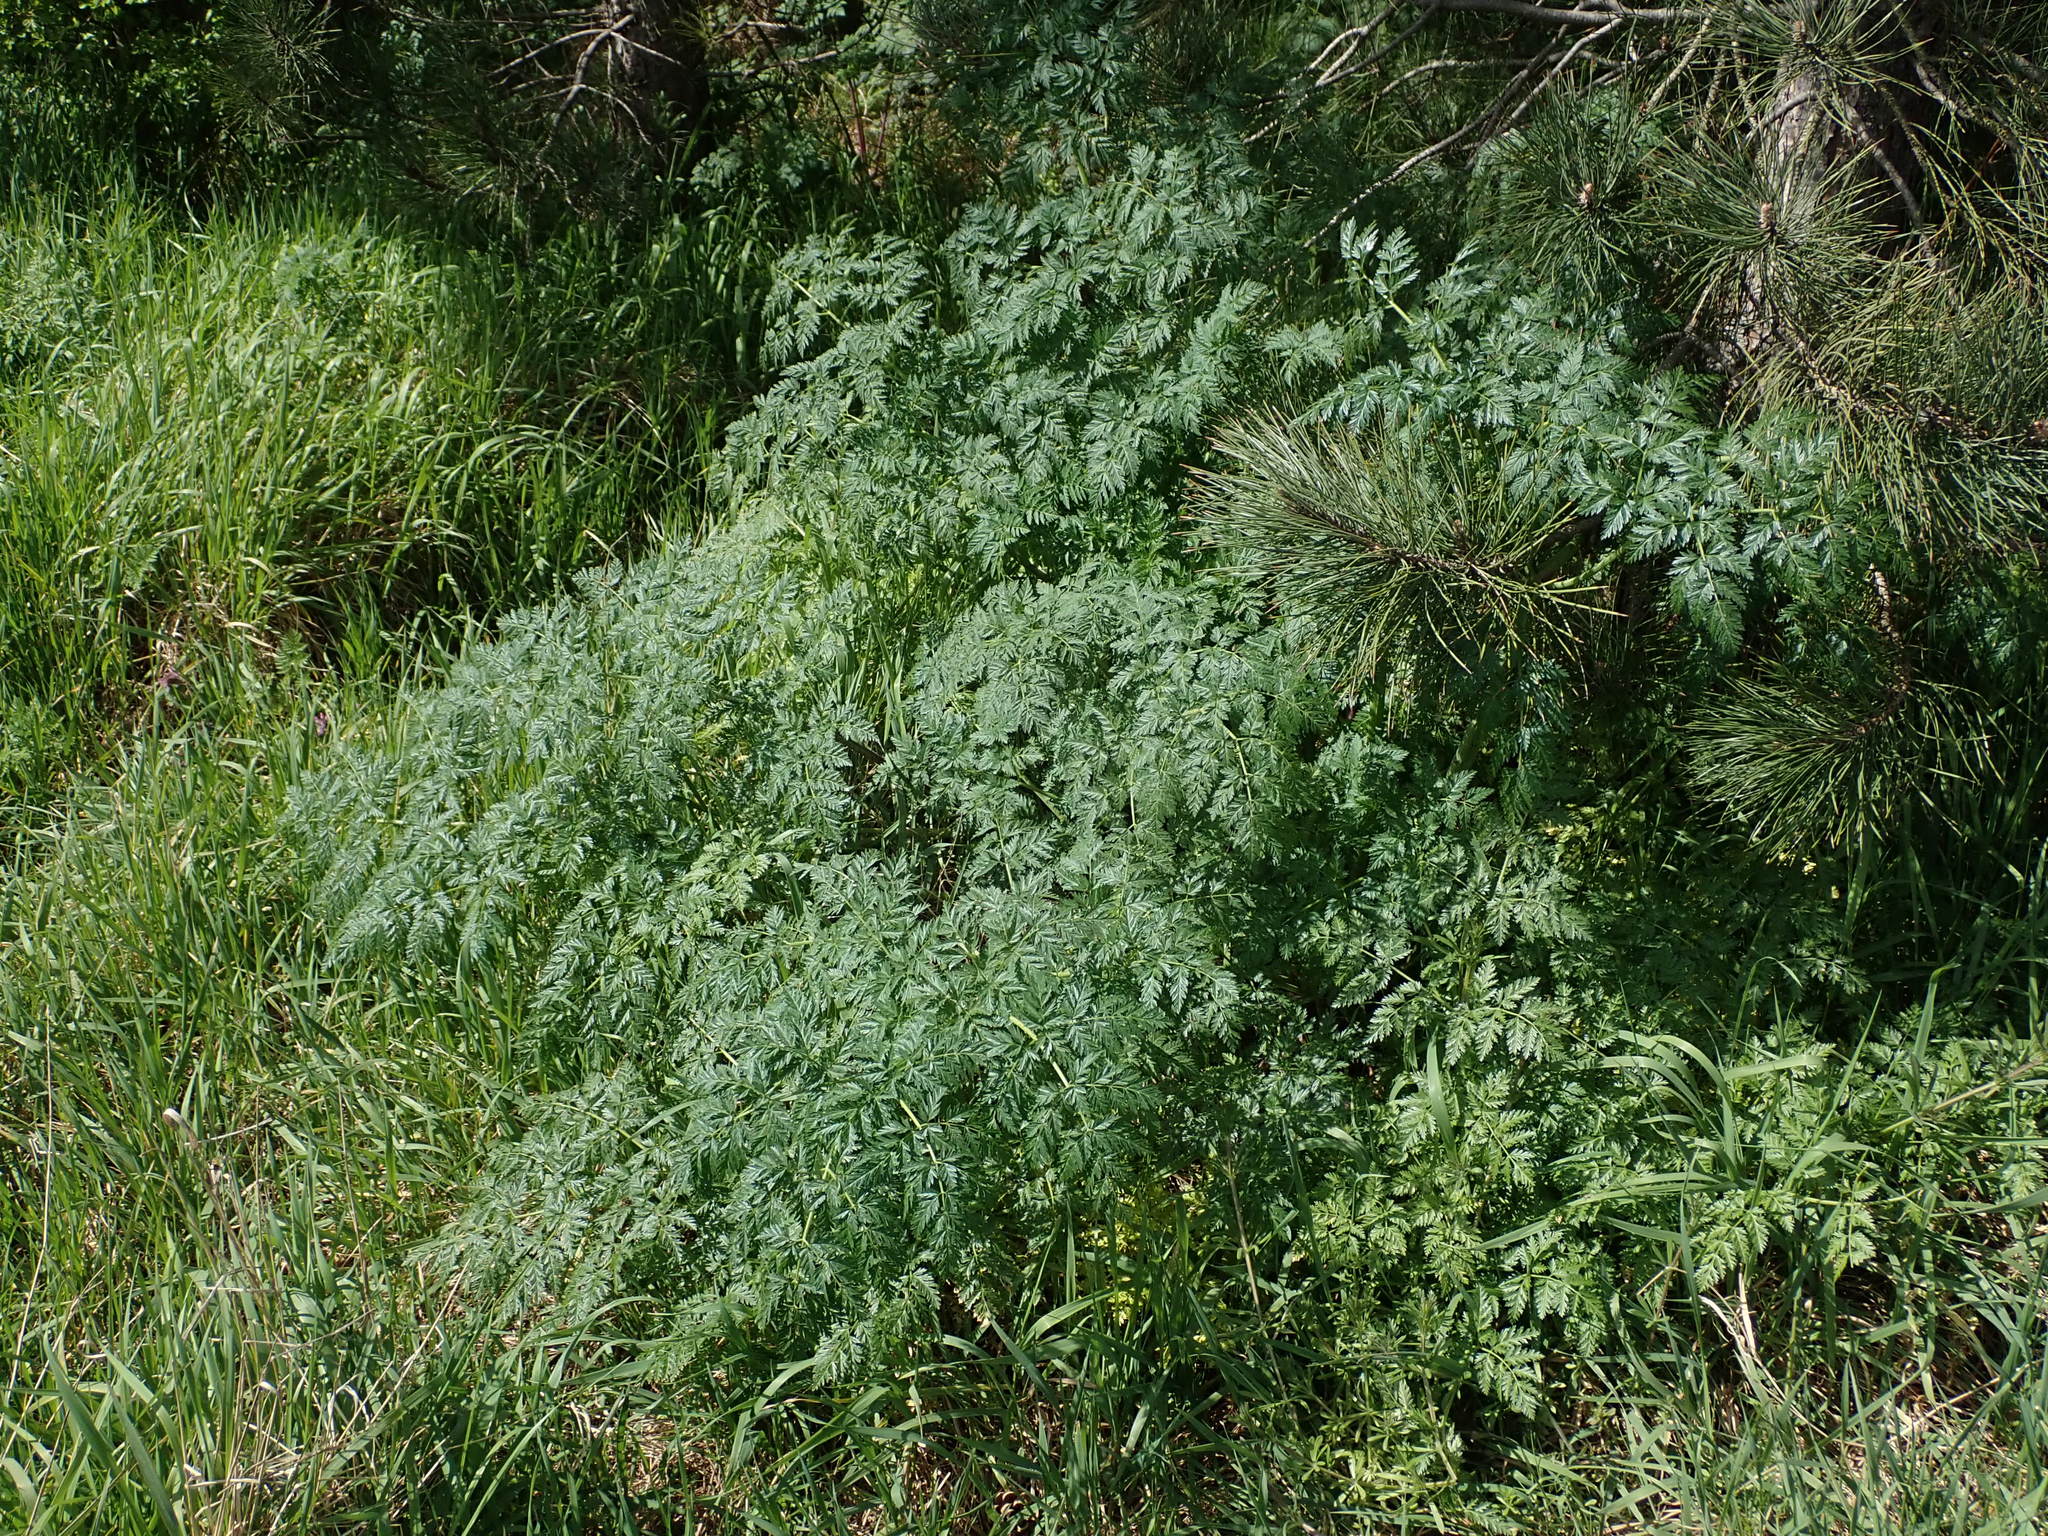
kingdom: Plantae
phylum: Tracheophyta
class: Magnoliopsida
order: Apiales
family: Apiaceae
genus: Conium
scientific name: Conium maculatum
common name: Hemlock
